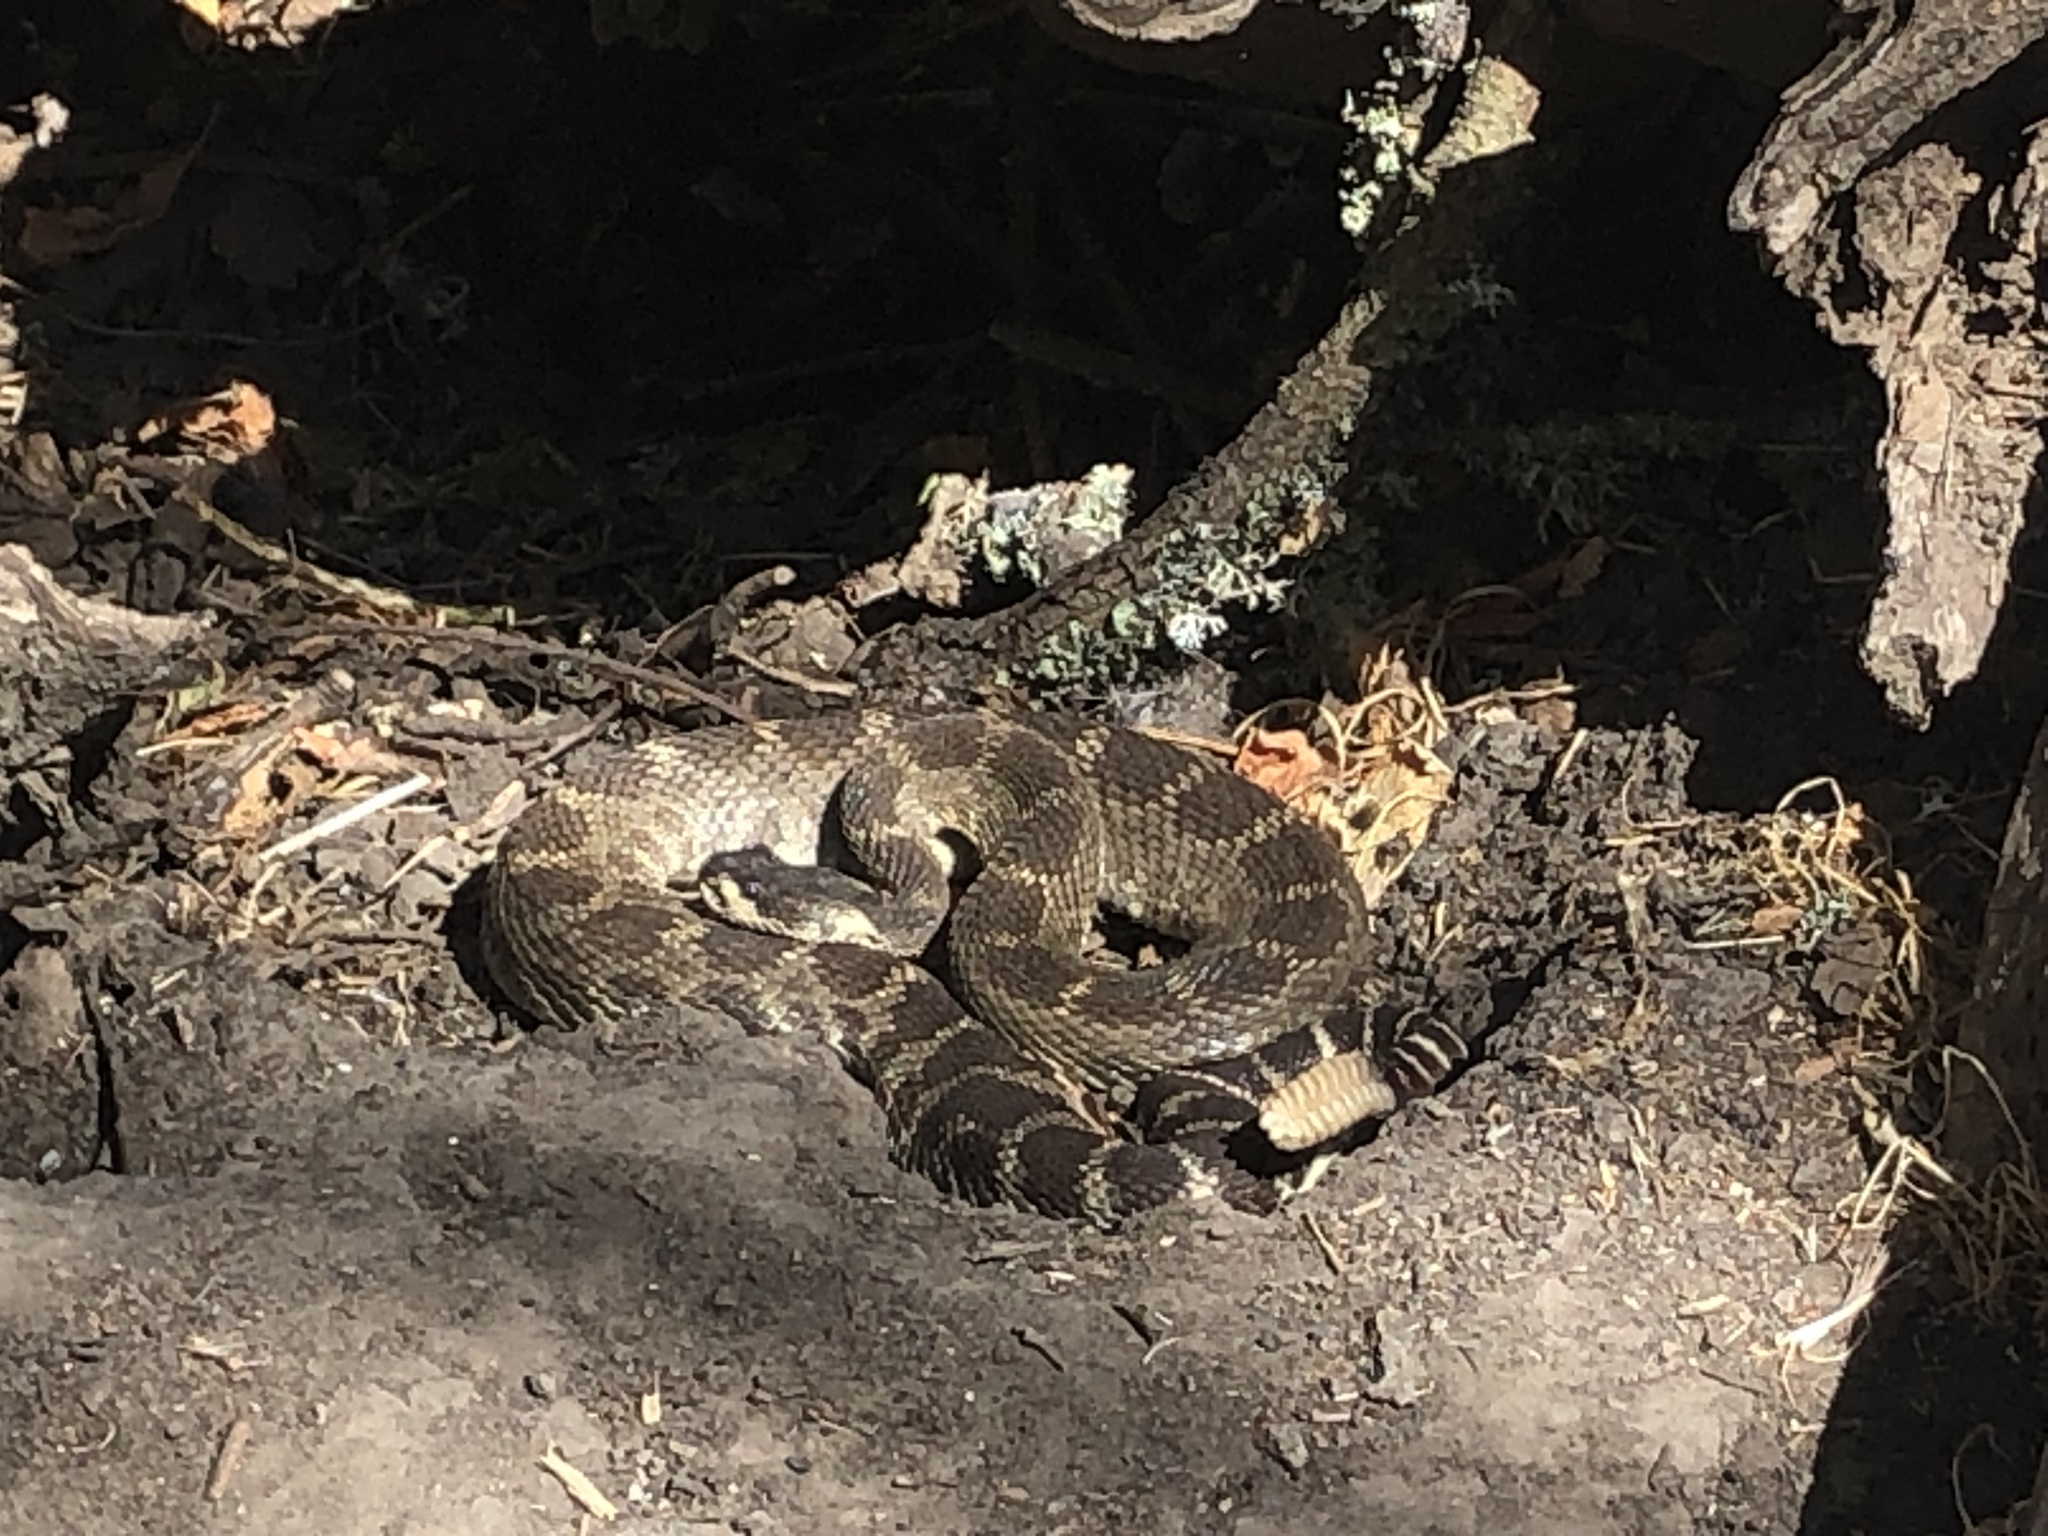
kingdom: Animalia
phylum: Chordata
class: Squamata
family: Viperidae
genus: Crotalus
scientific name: Crotalus oreganus
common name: Abyssus
